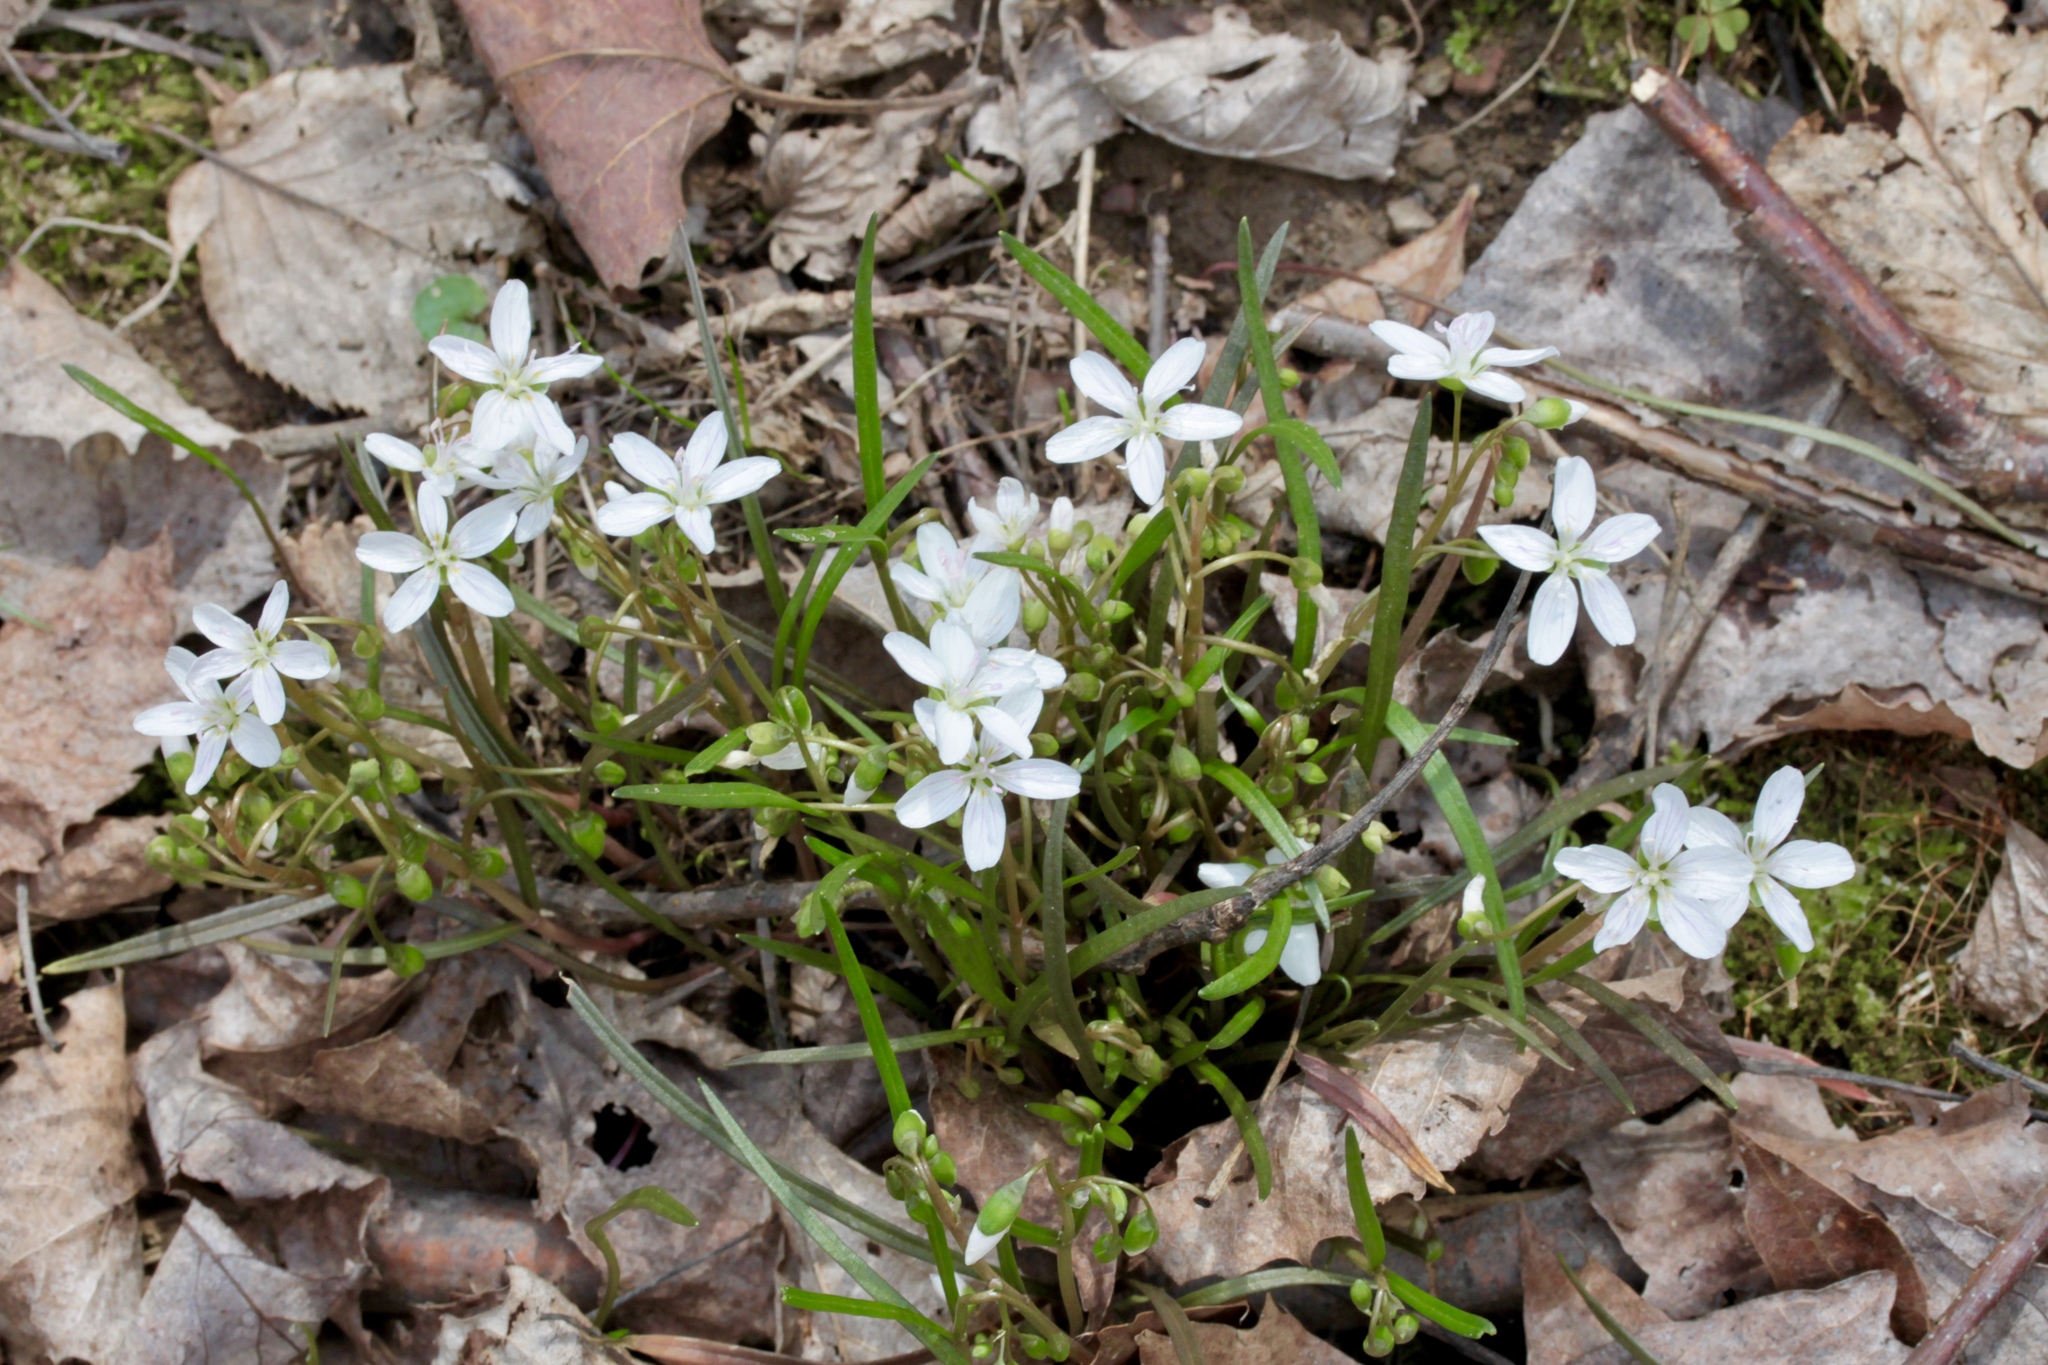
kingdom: Plantae
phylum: Tracheophyta
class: Magnoliopsida
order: Caryophyllales
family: Montiaceae
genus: Claytonia
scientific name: Claytonia virginica
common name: Virginia springbeauty
